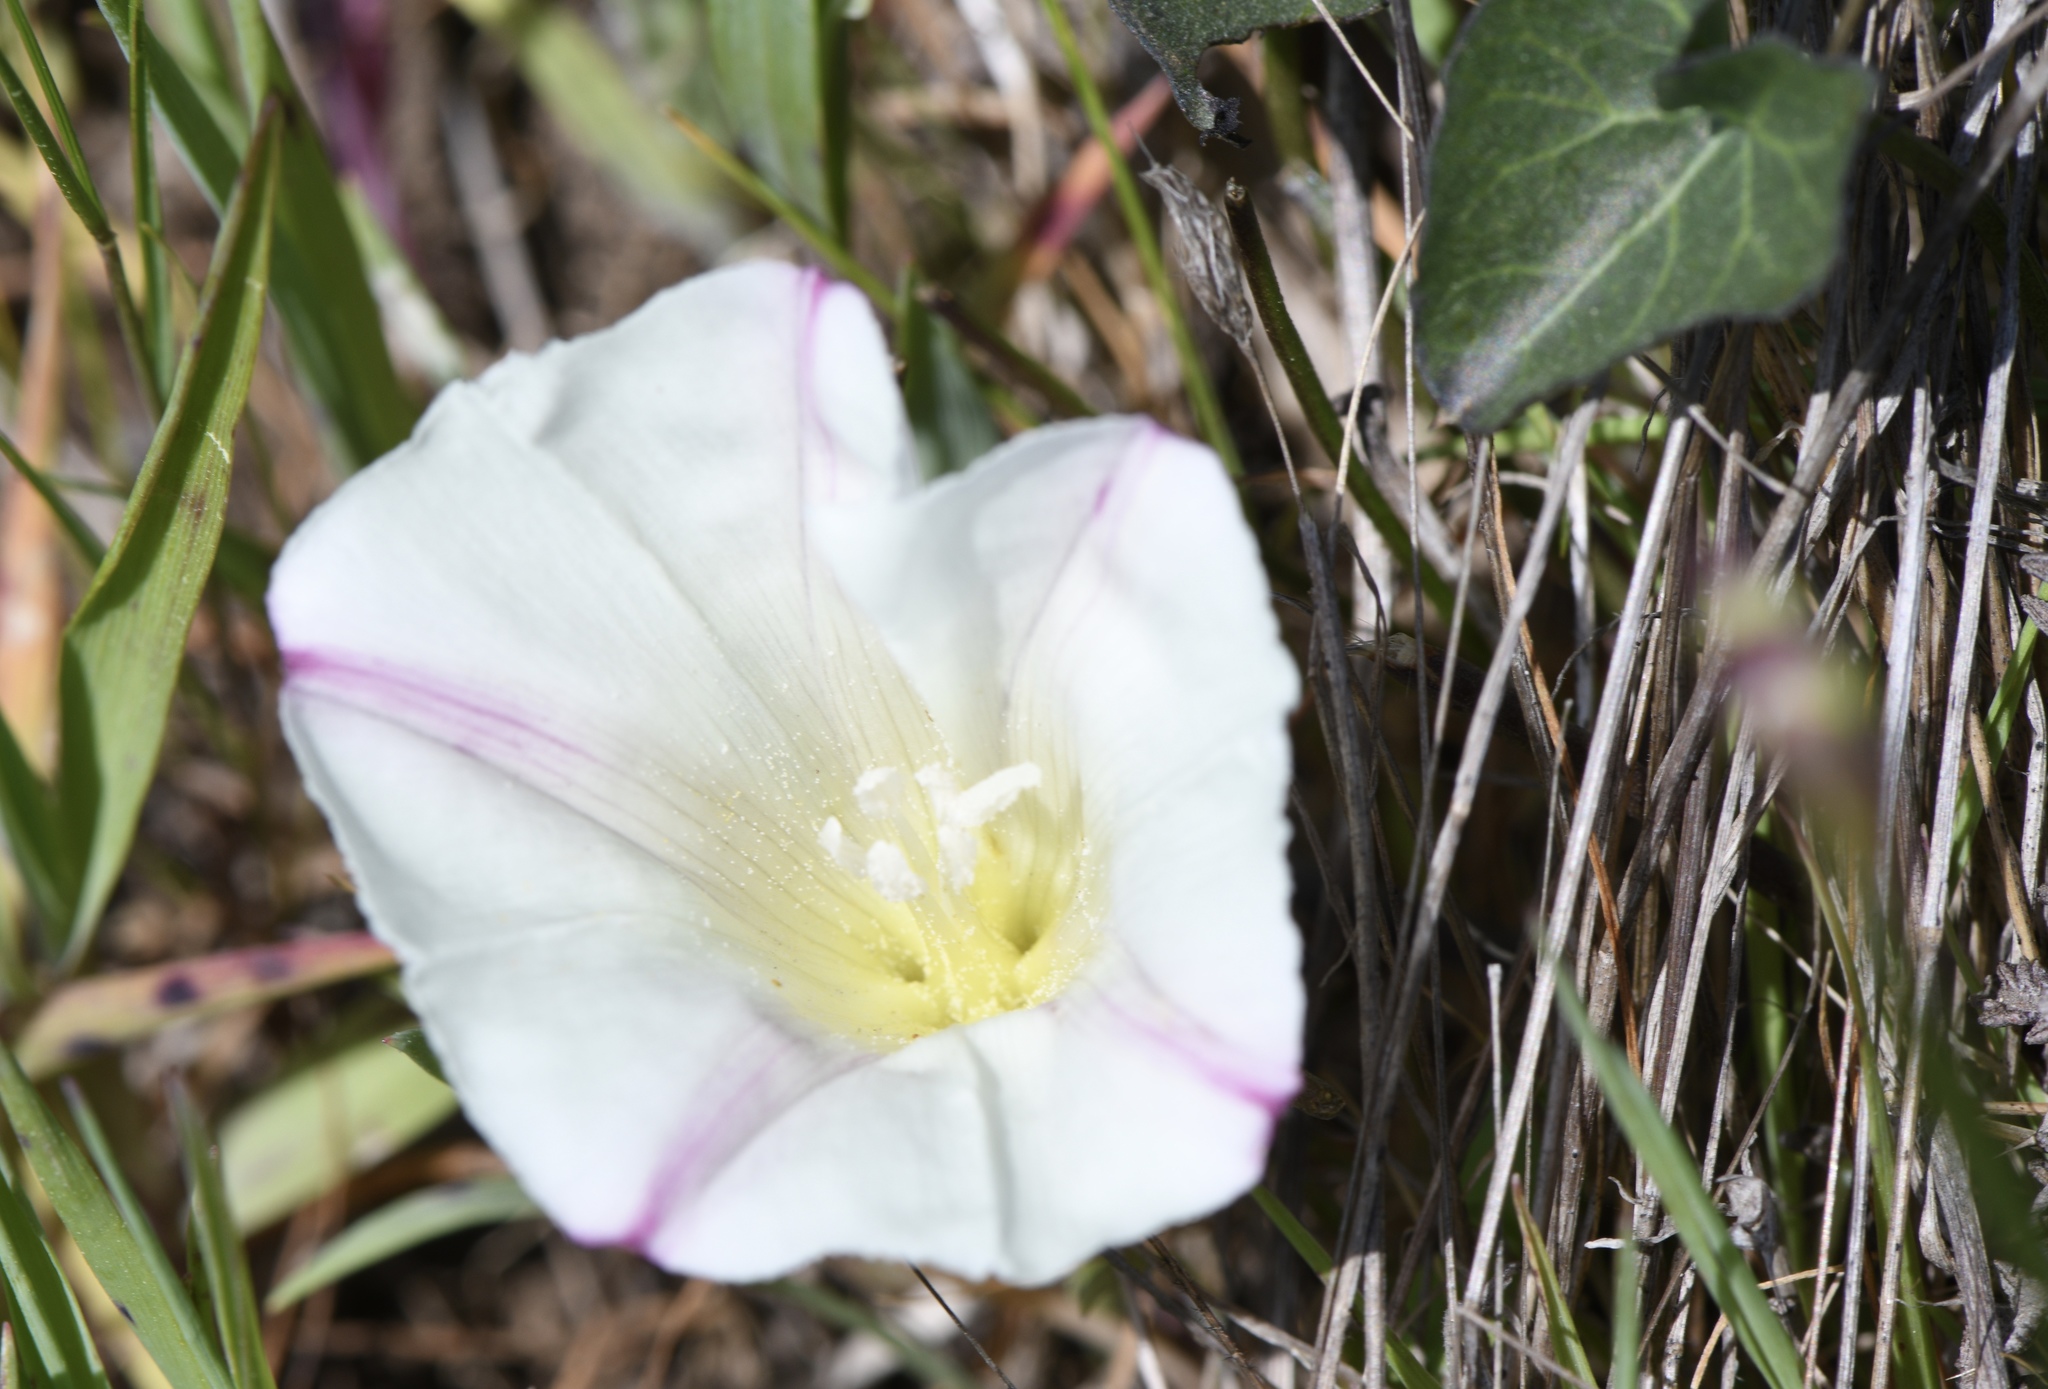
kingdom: Plantae
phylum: Tracheophyta
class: Magnoliopsida
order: Solanales
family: Convolvulaceae
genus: Calystegia
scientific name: Calystegia purpurata
